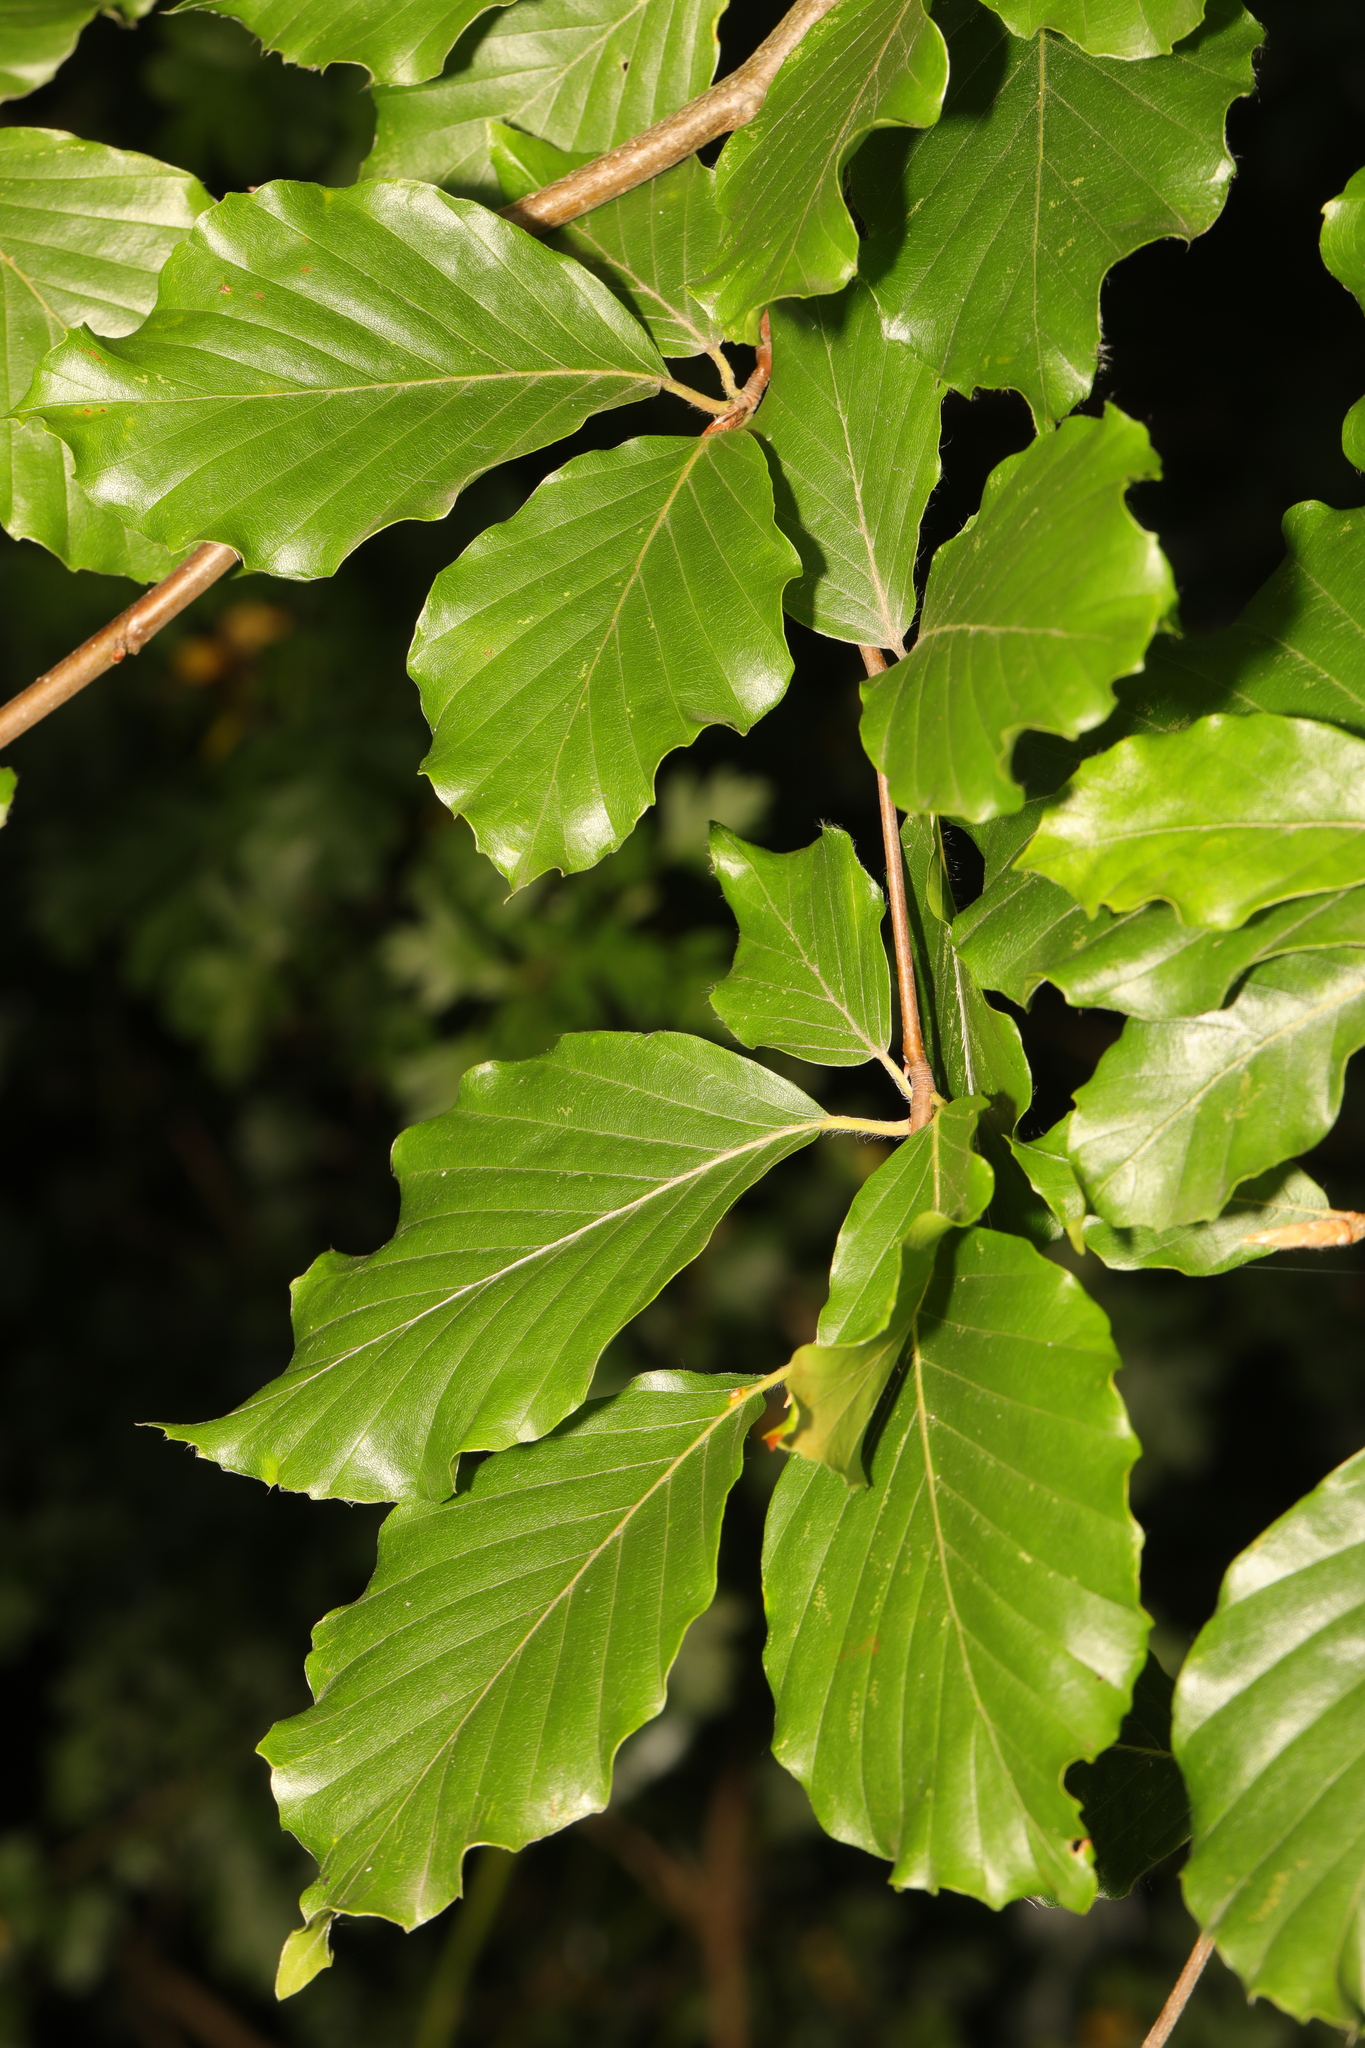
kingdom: Plantae
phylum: Tracheophyta
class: Magnoliopsida
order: Fagales
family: Fagaceae
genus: Fagus
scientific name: Fagus sylvatica
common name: Beech
